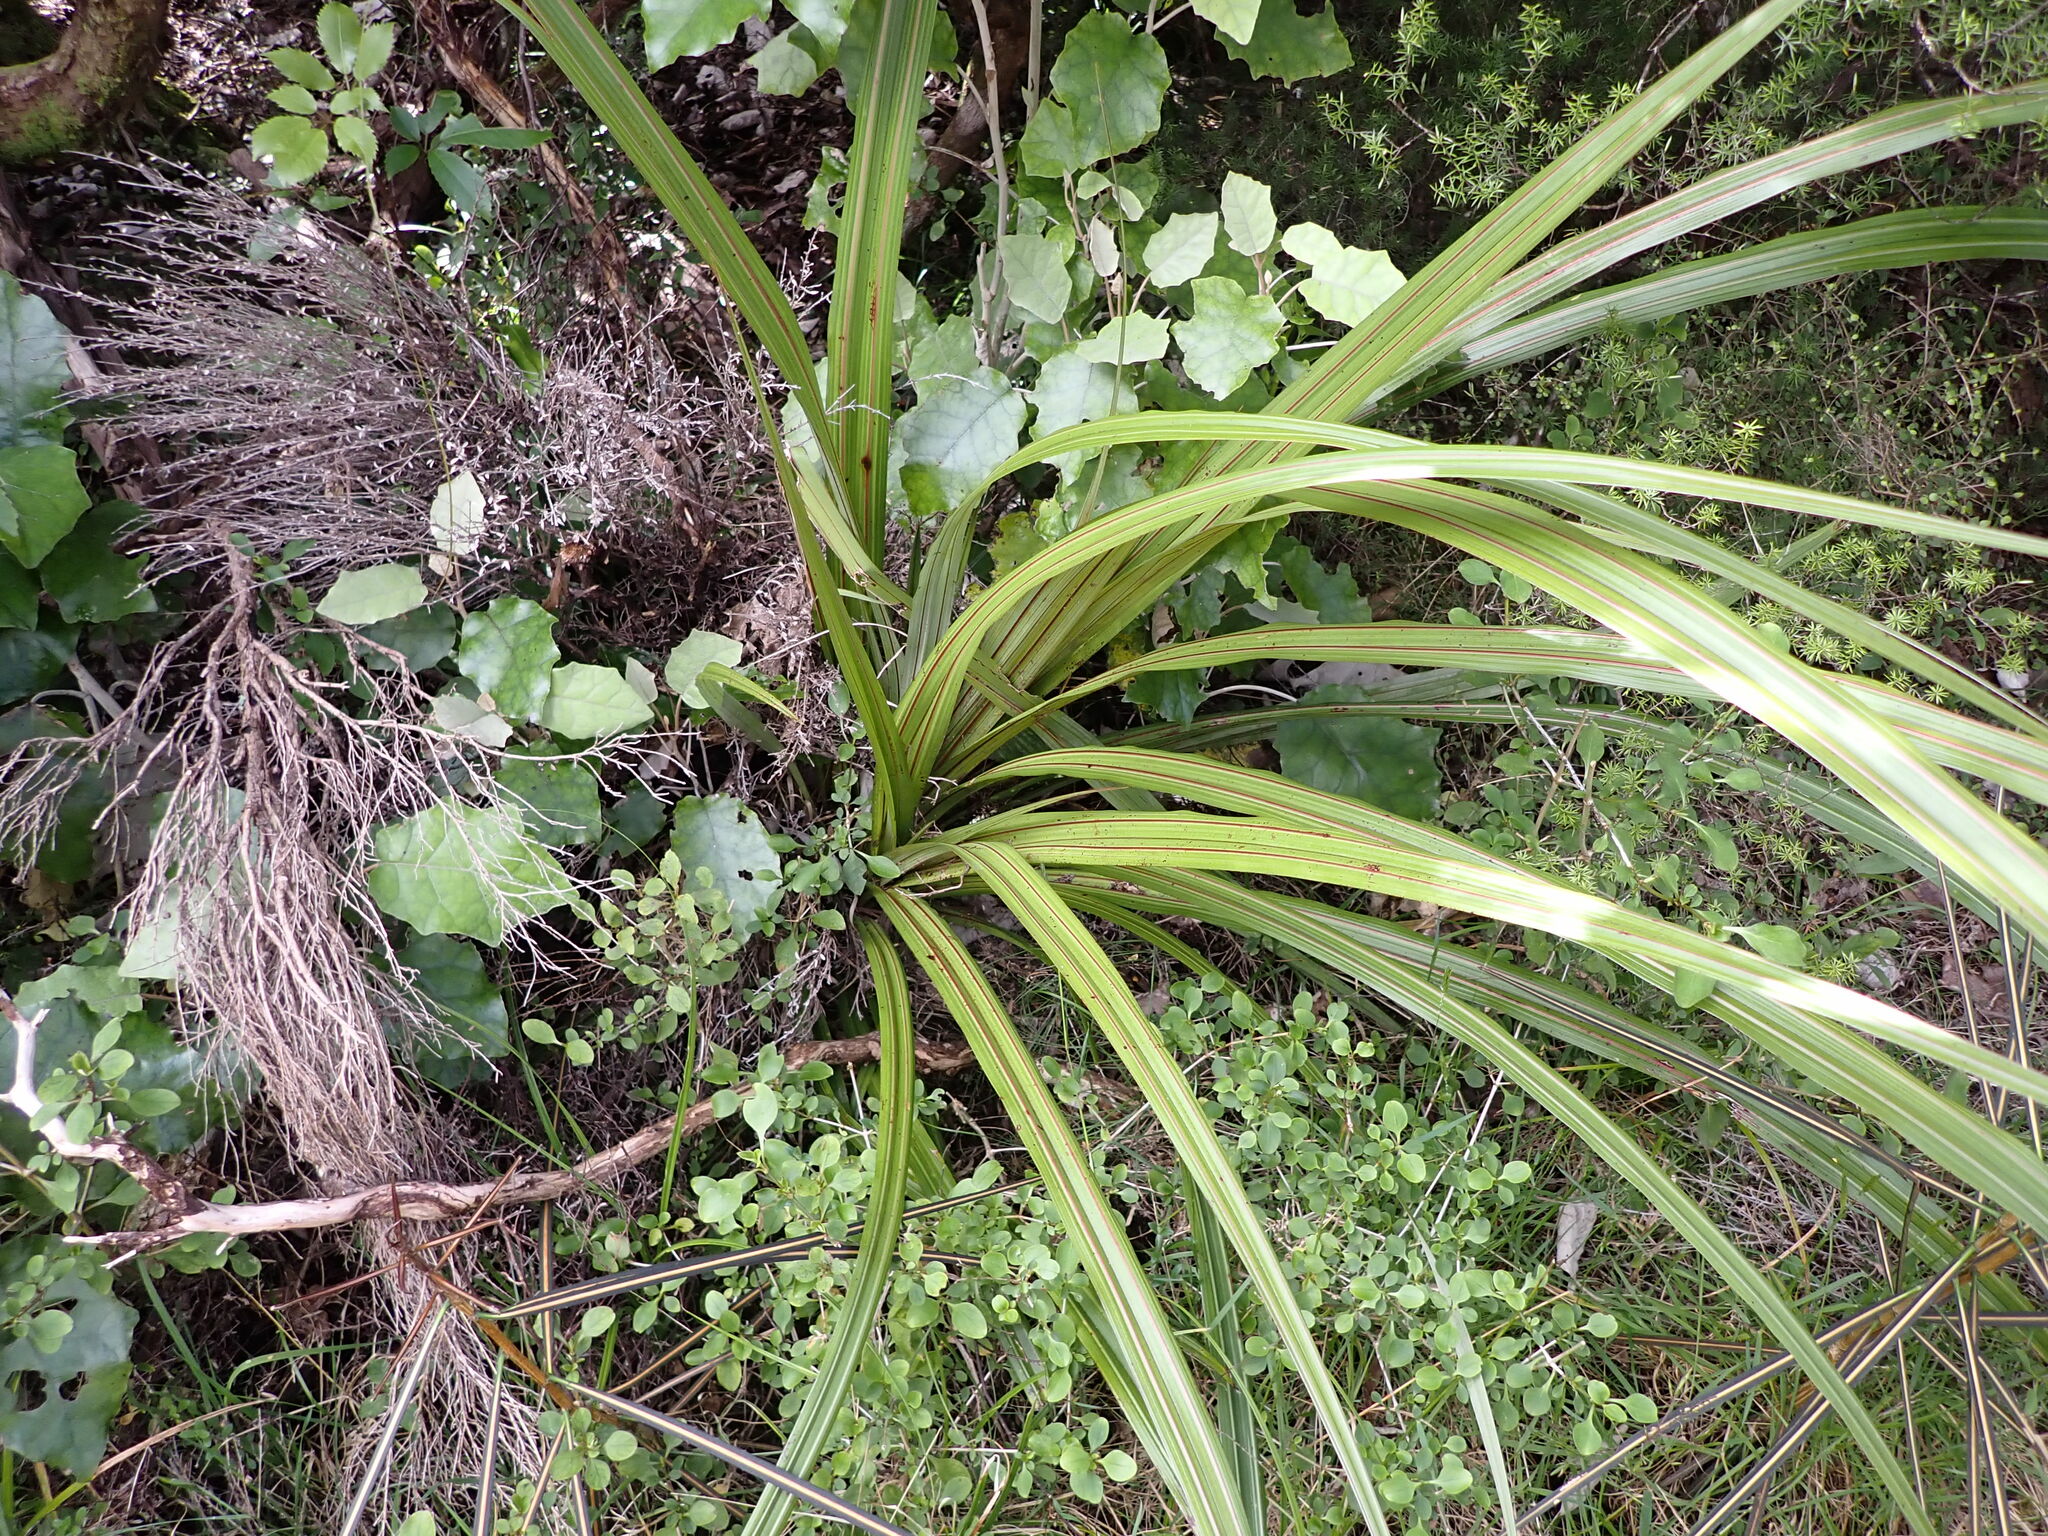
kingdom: Plantae
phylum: Tracheophyta
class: Liliopsida
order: Asparagales
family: Asteliaceae
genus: Astelia
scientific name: Astelia fragrans
